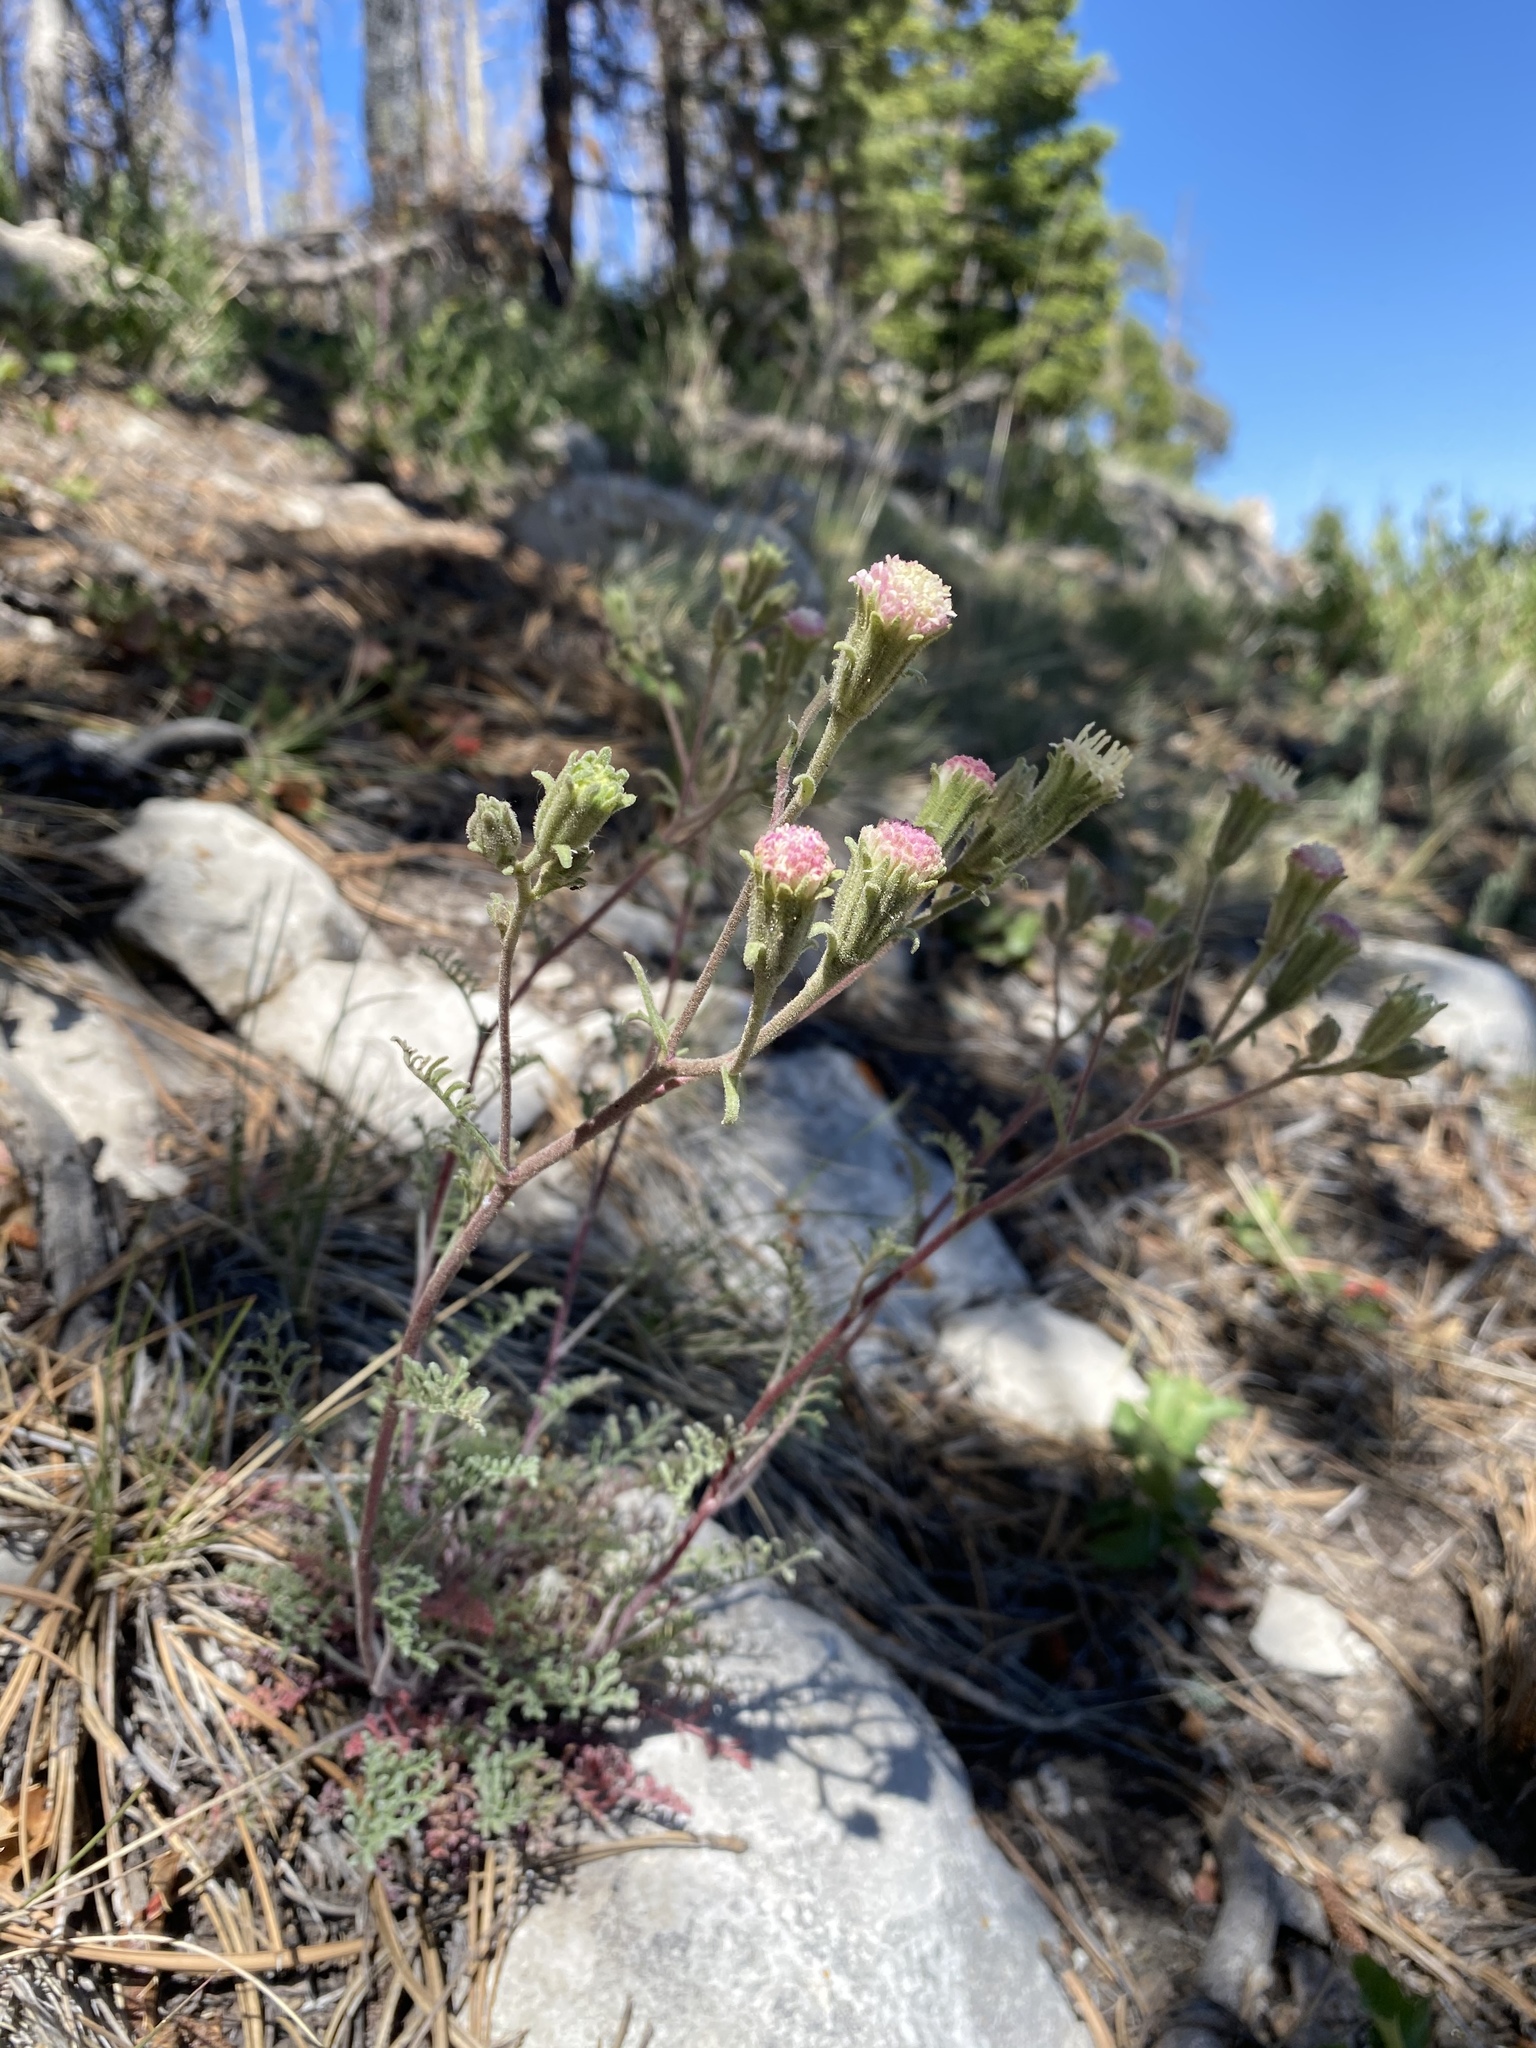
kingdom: Plantae
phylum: Tracheophyta
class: Magnoliopsida
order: Asterales
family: Asteraceae
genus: Chaenactis
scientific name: Chaenactis douglasii
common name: Hoary pincushion
